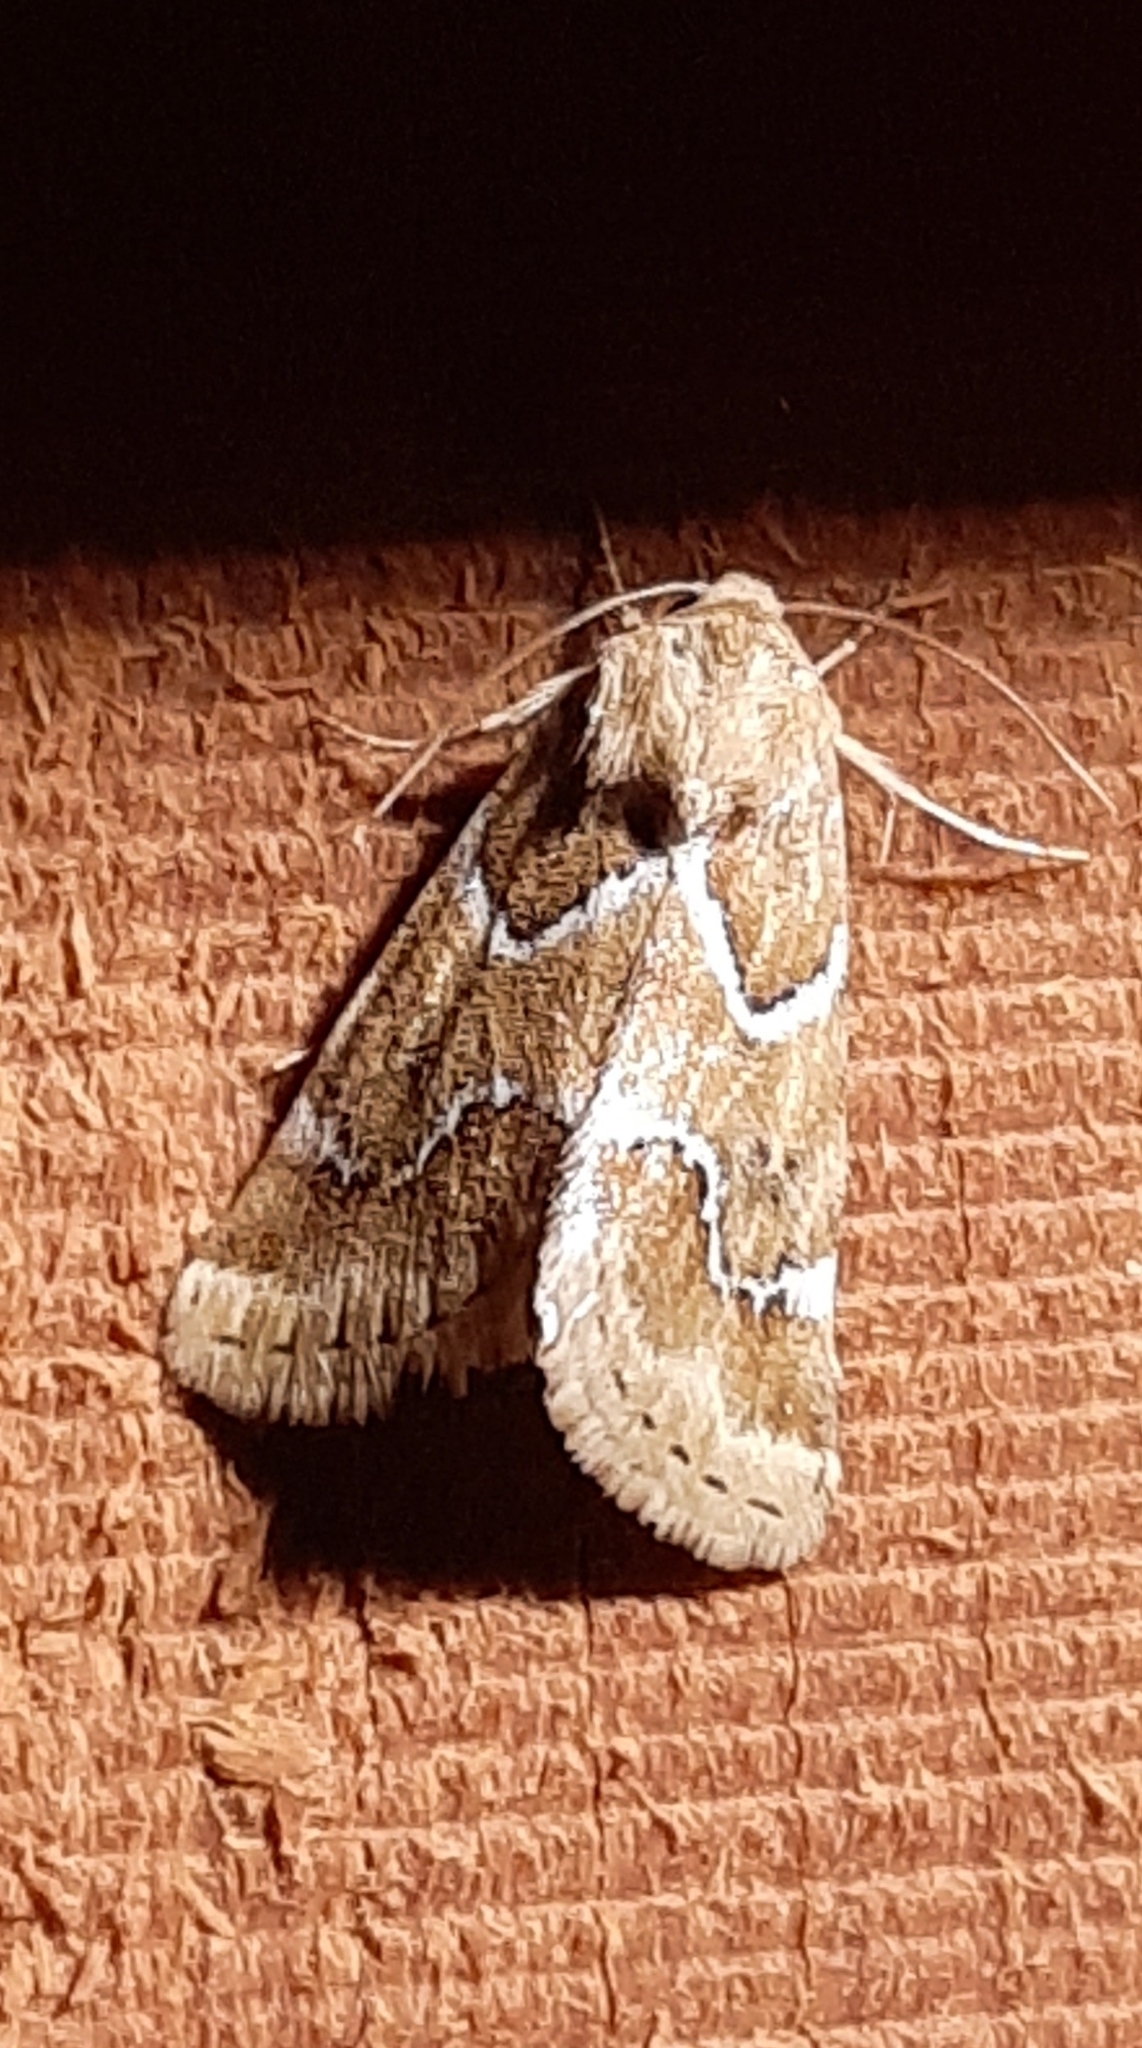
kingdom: Animalia
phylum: Arthropoda
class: Insecta
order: Lepidoptera
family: Noctuidae
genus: Schinia
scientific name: Schinia walsinghami
